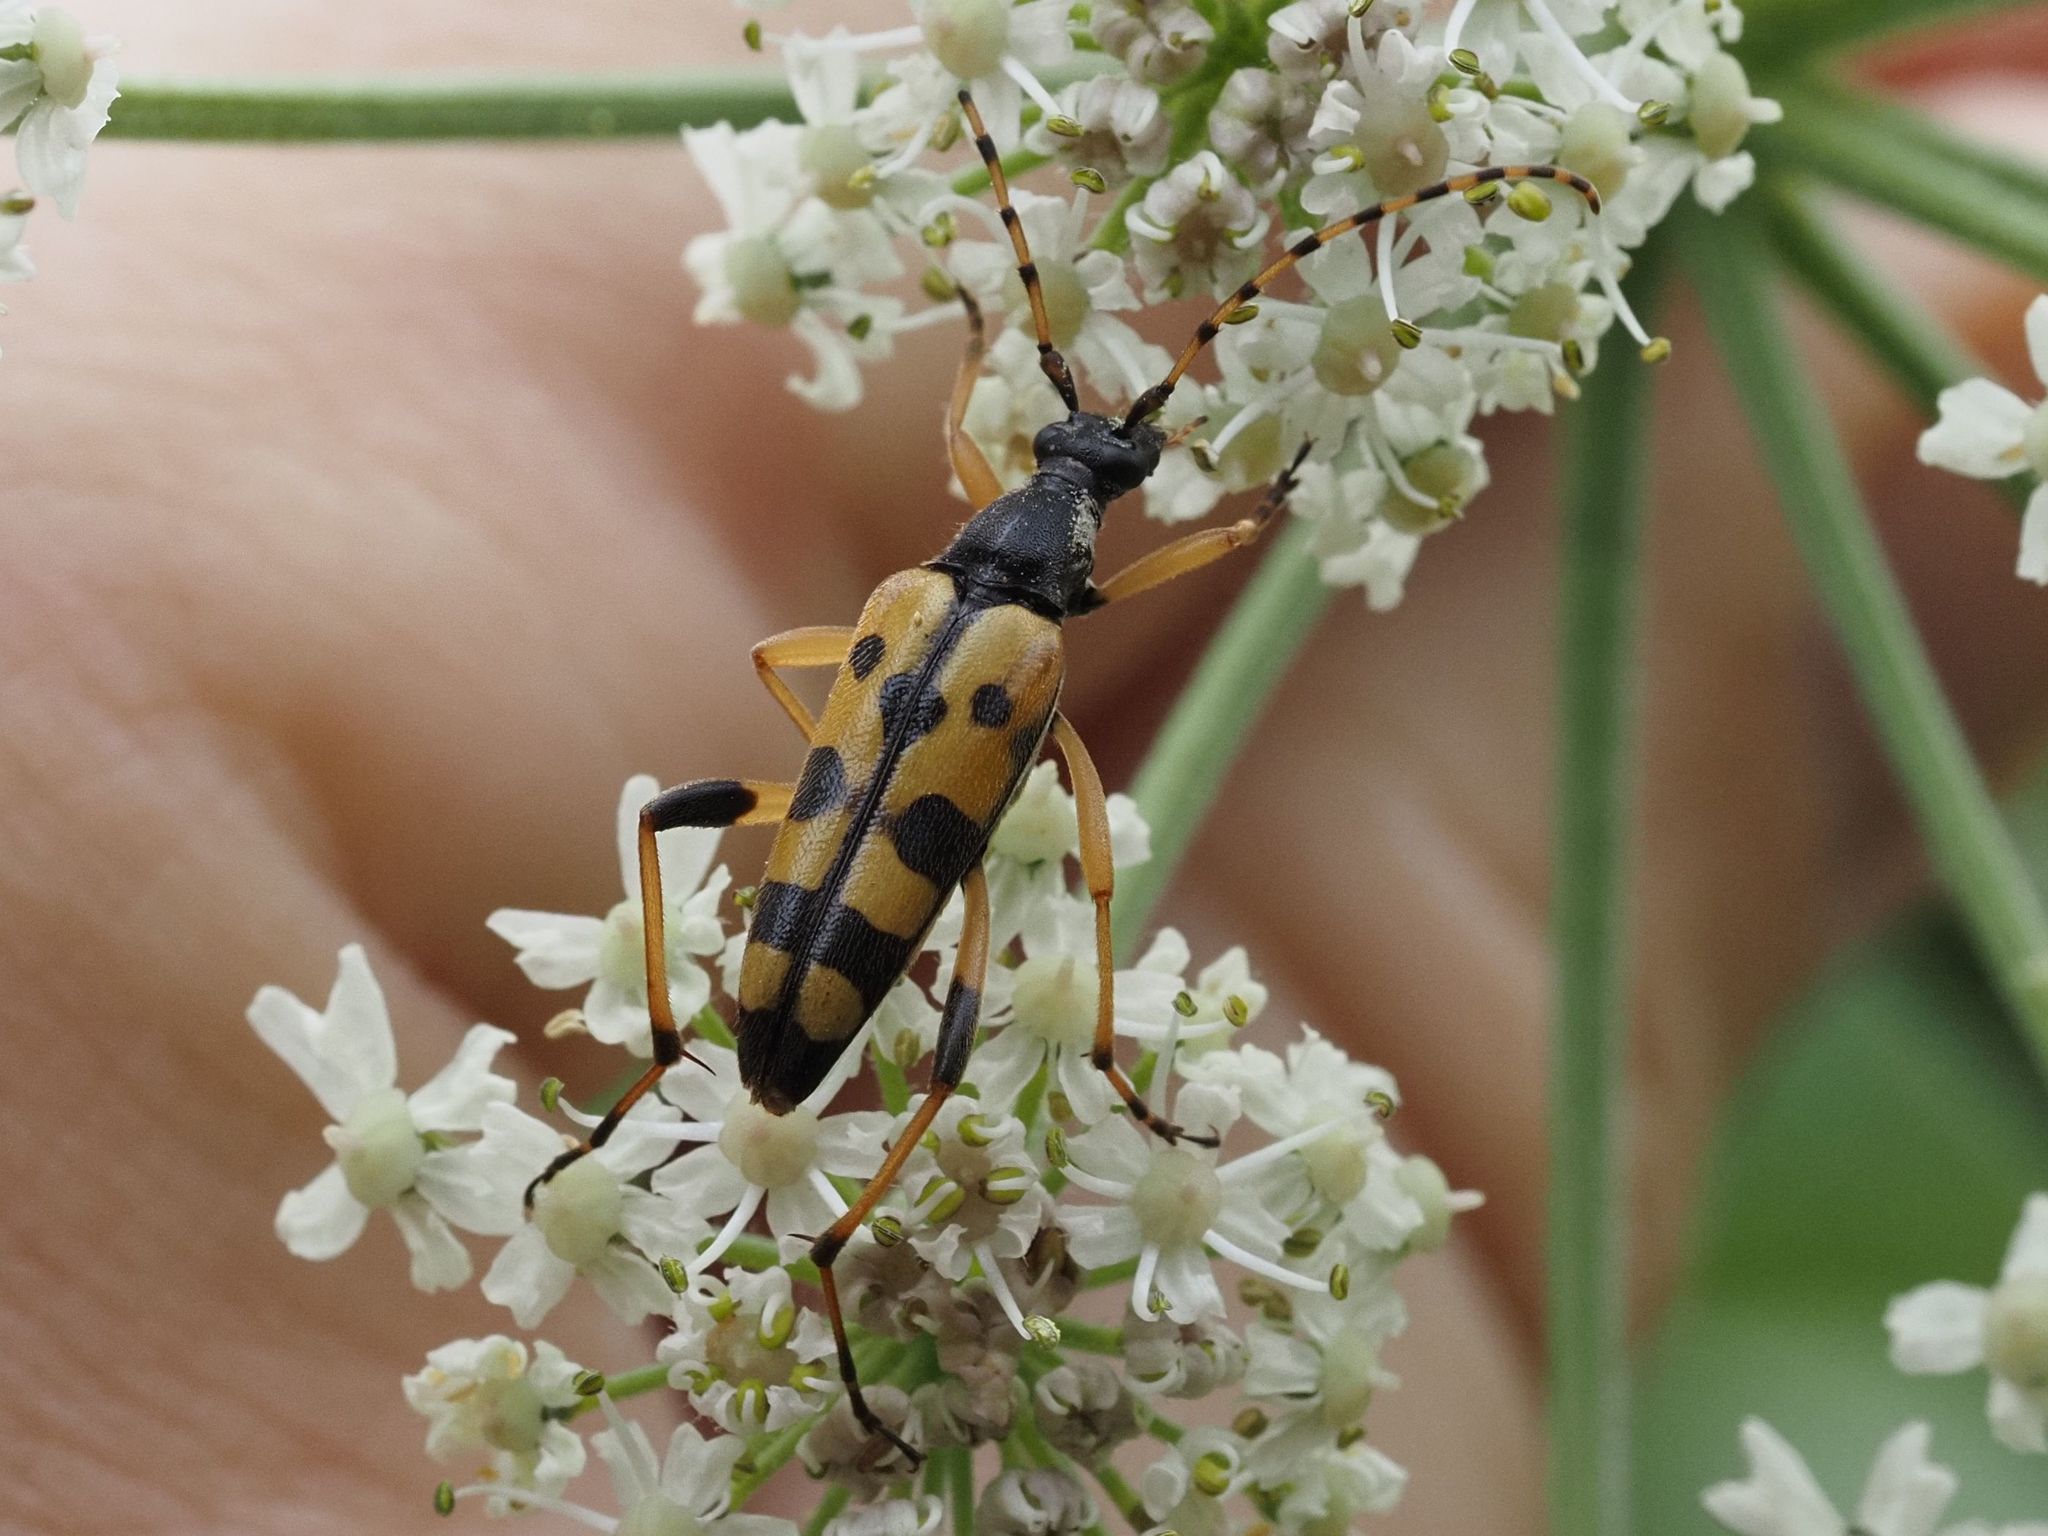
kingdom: Animalia
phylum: Arthropoda
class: Insecta
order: Coleoptera
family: Cerambycidae
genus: Rutpela
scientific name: Rutpela maculata
